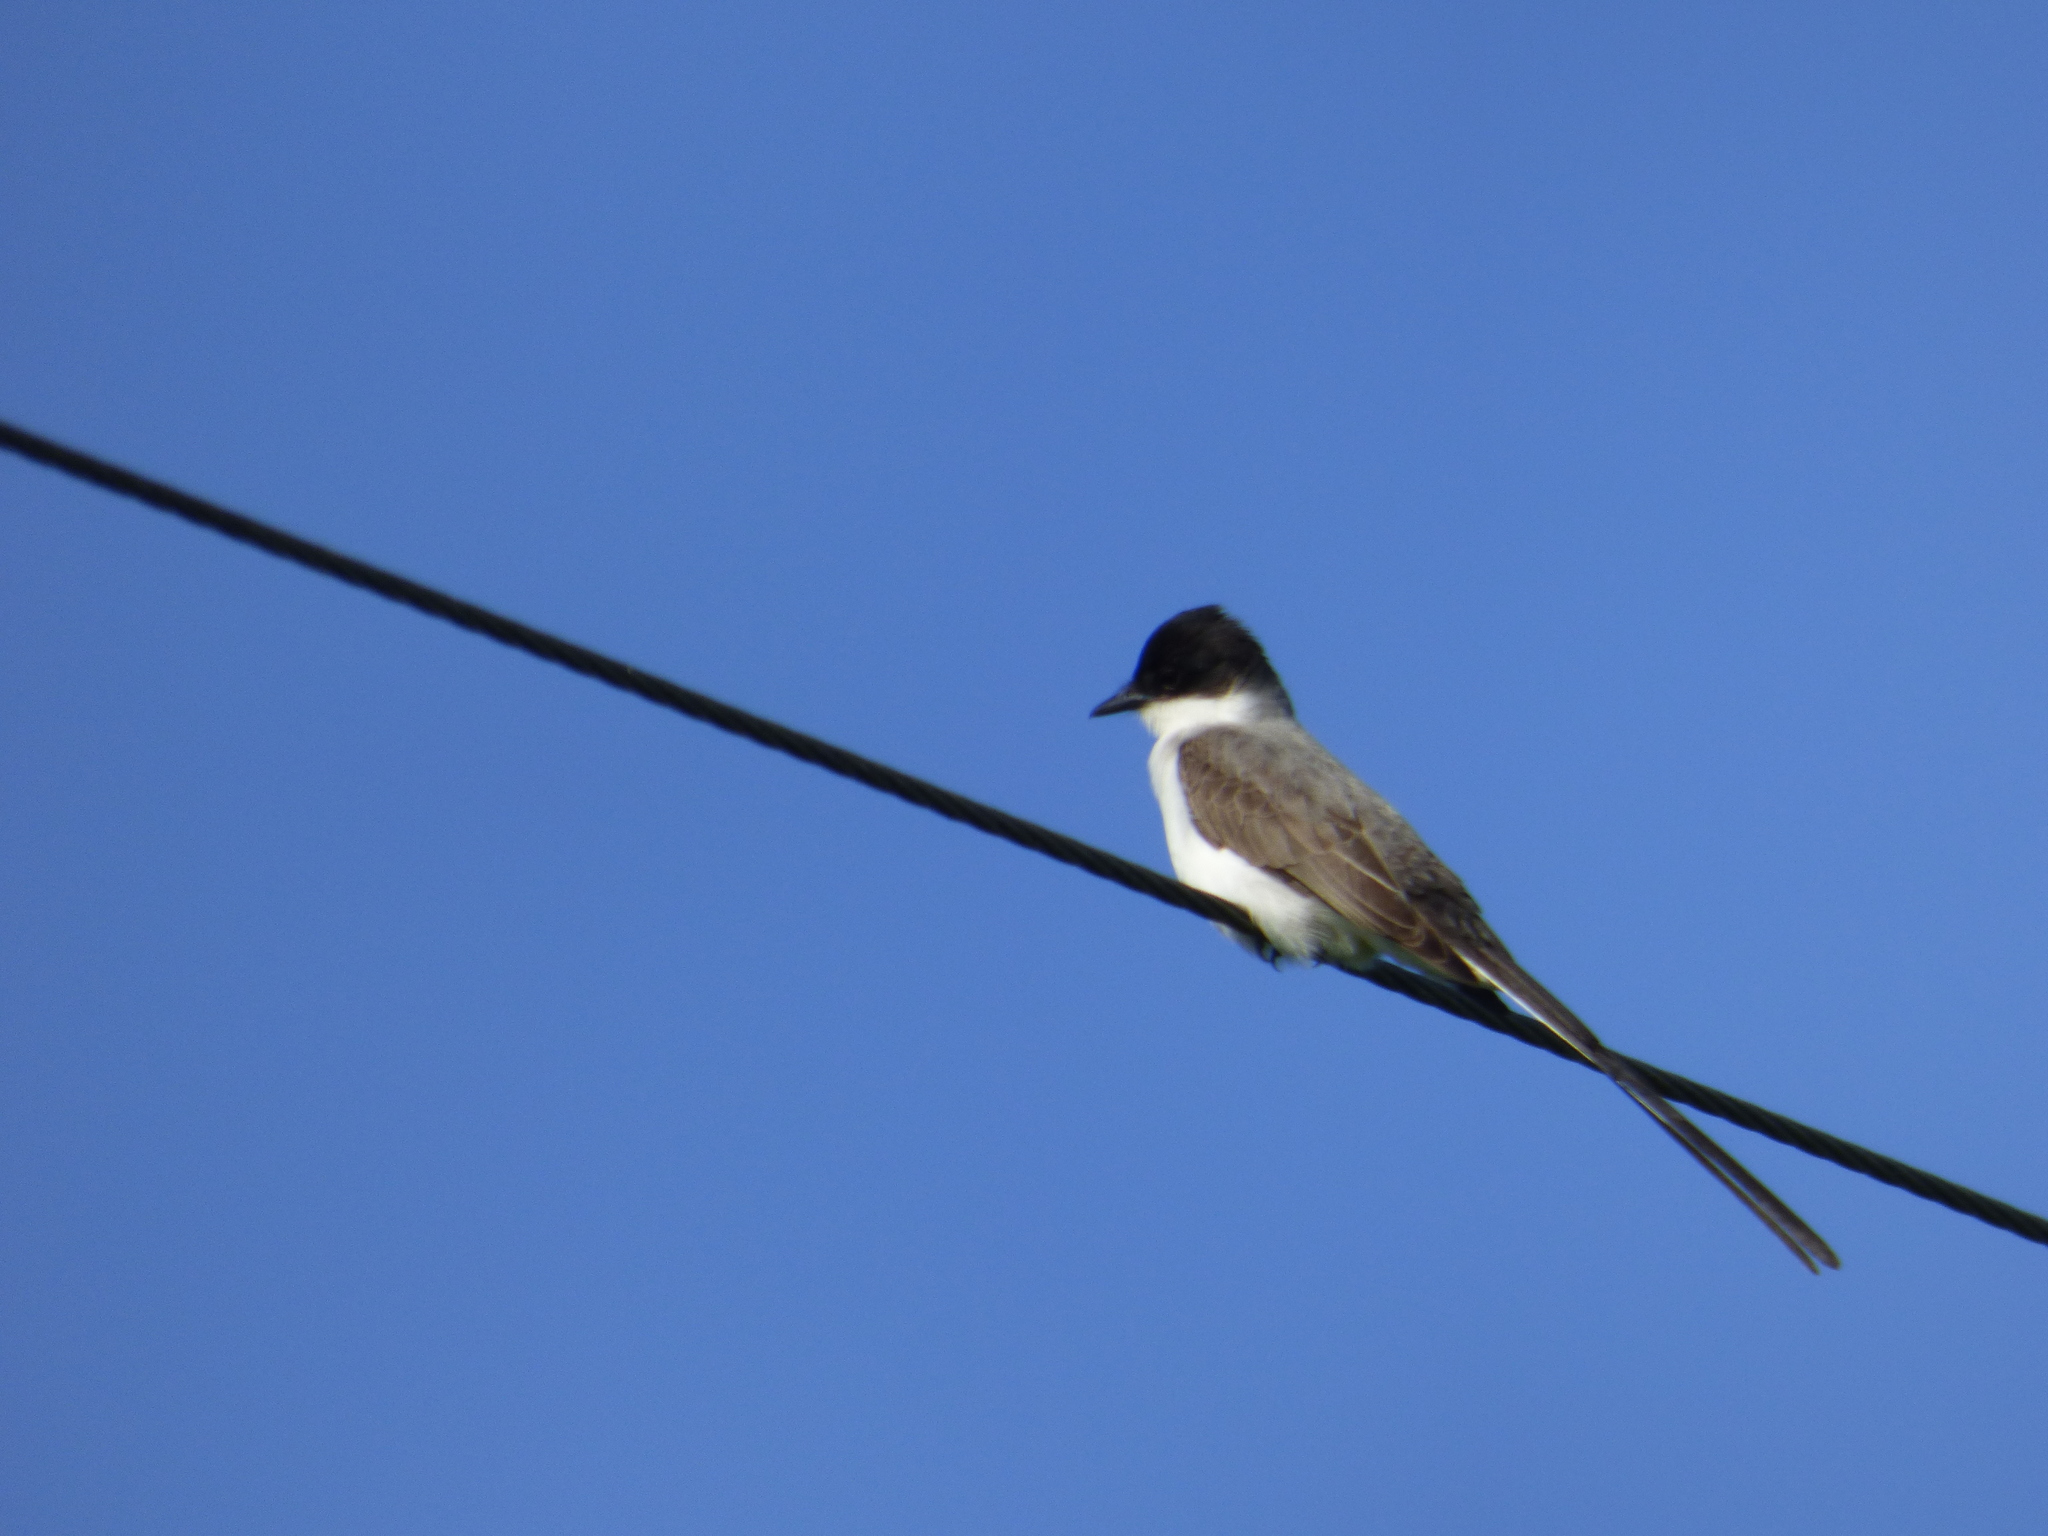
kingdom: Animalia
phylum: Chordata
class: Aves
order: Passeriformes
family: Tyrannidae
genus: Tyrannus
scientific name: Tyrannus savana
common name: Fork-tailed flycatcher
